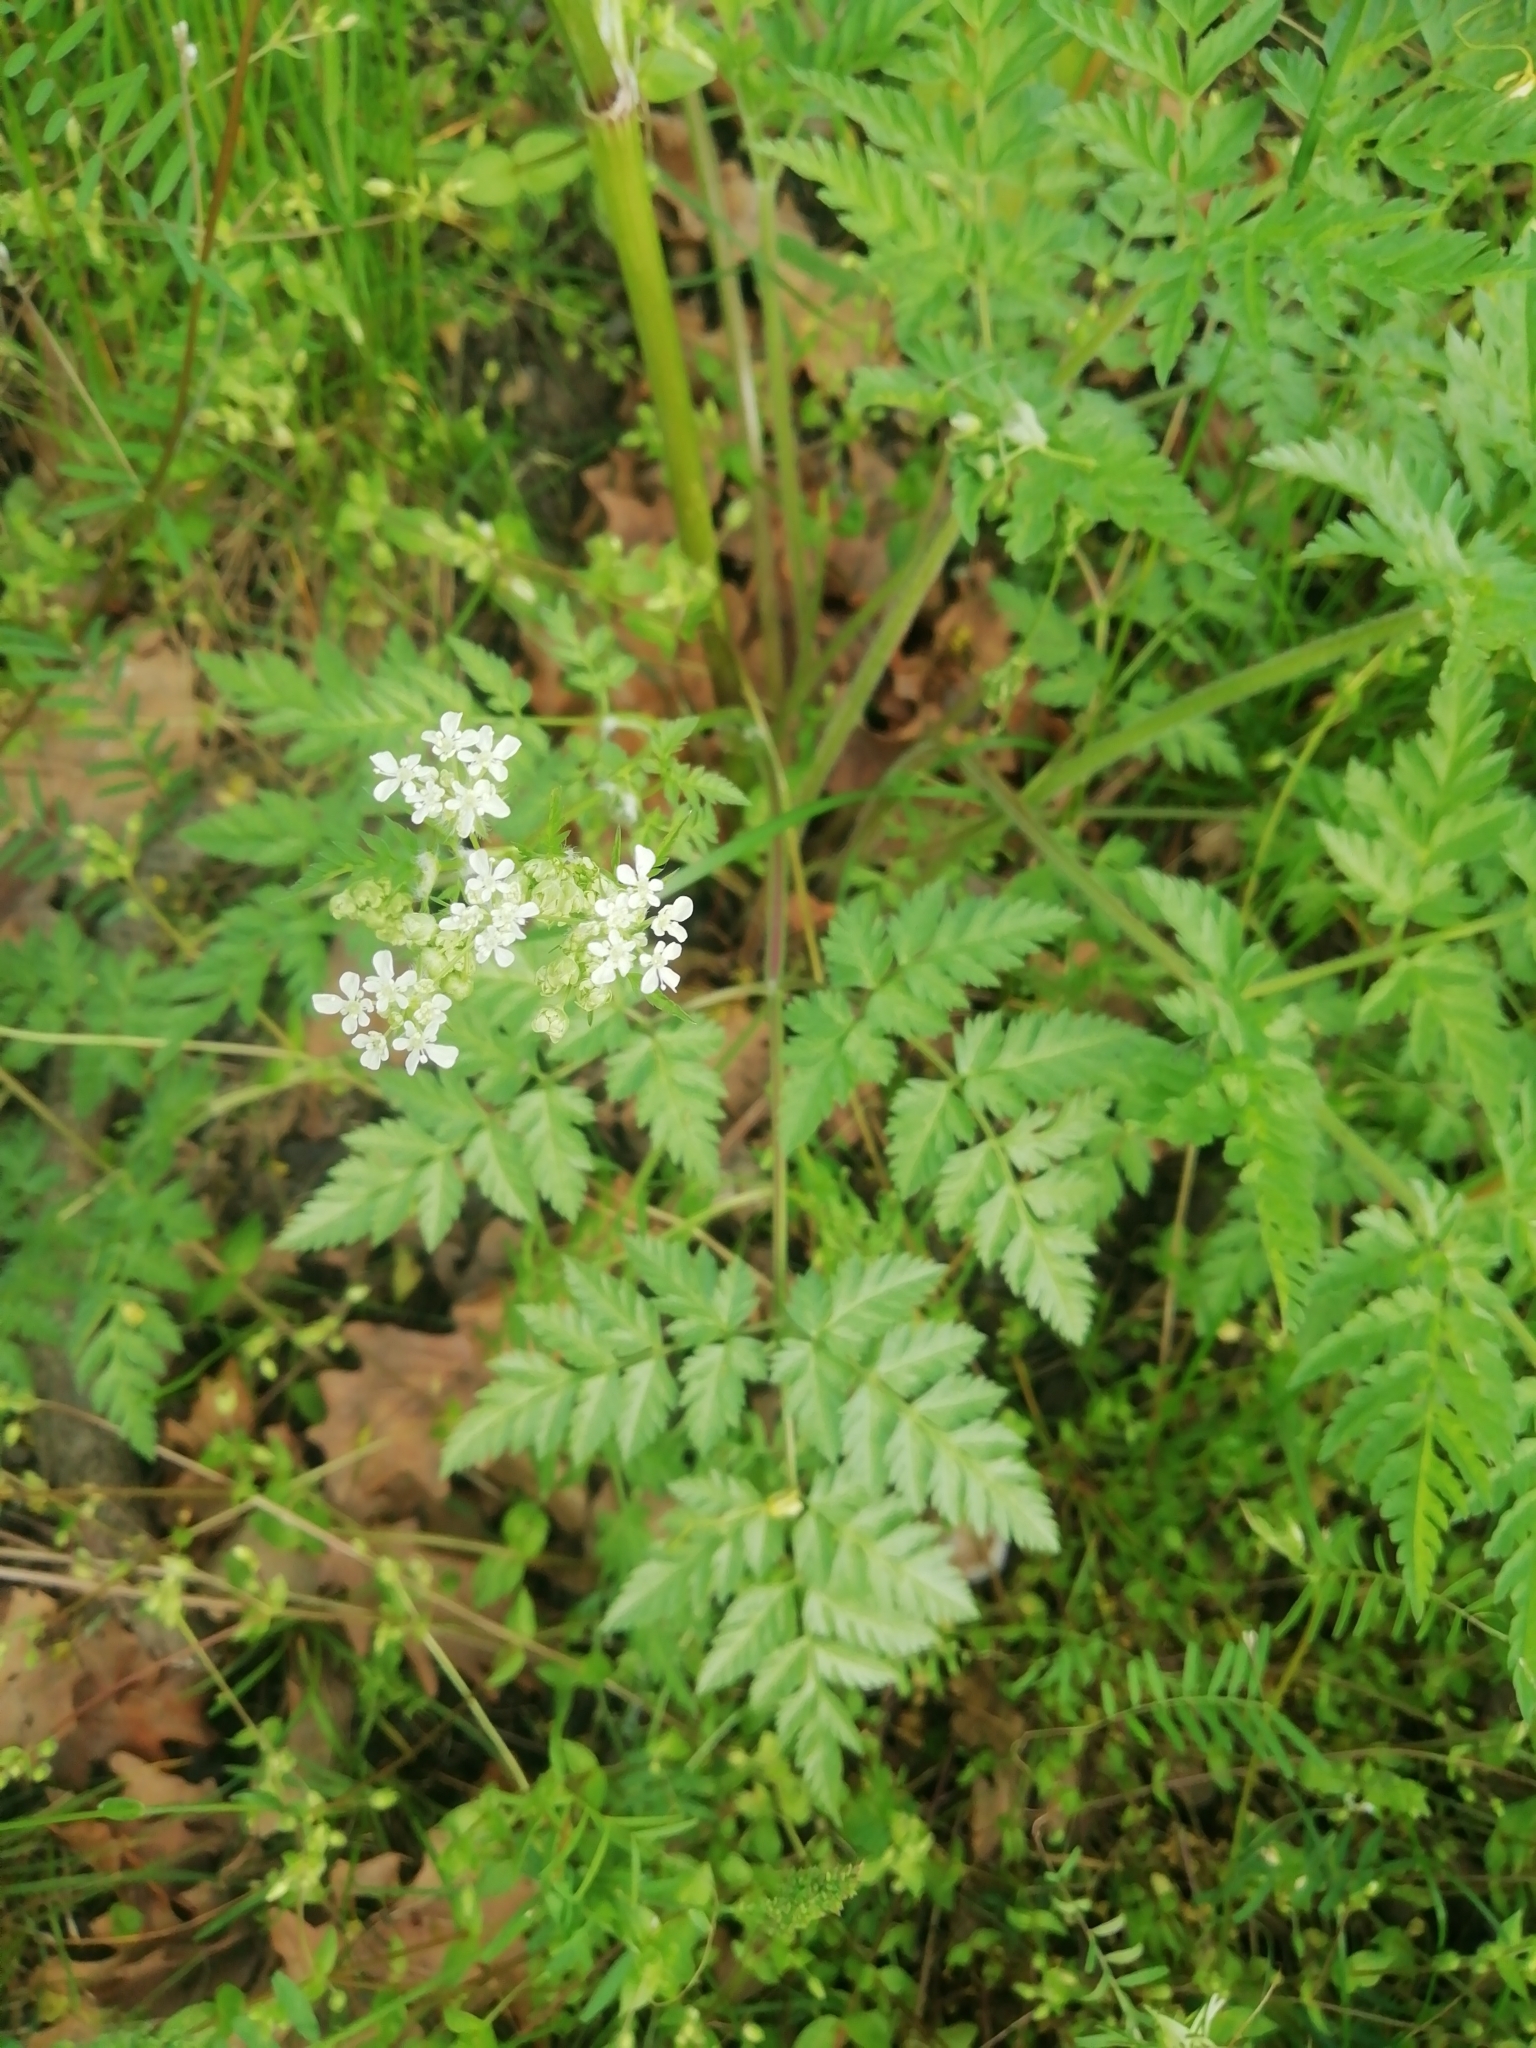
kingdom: Plantae
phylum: Tracheophyta
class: Magnoliopsida
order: Apiales
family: Apiaceae
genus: Anthriscus
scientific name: Anthriscus sylvestris
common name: Cow parsley
